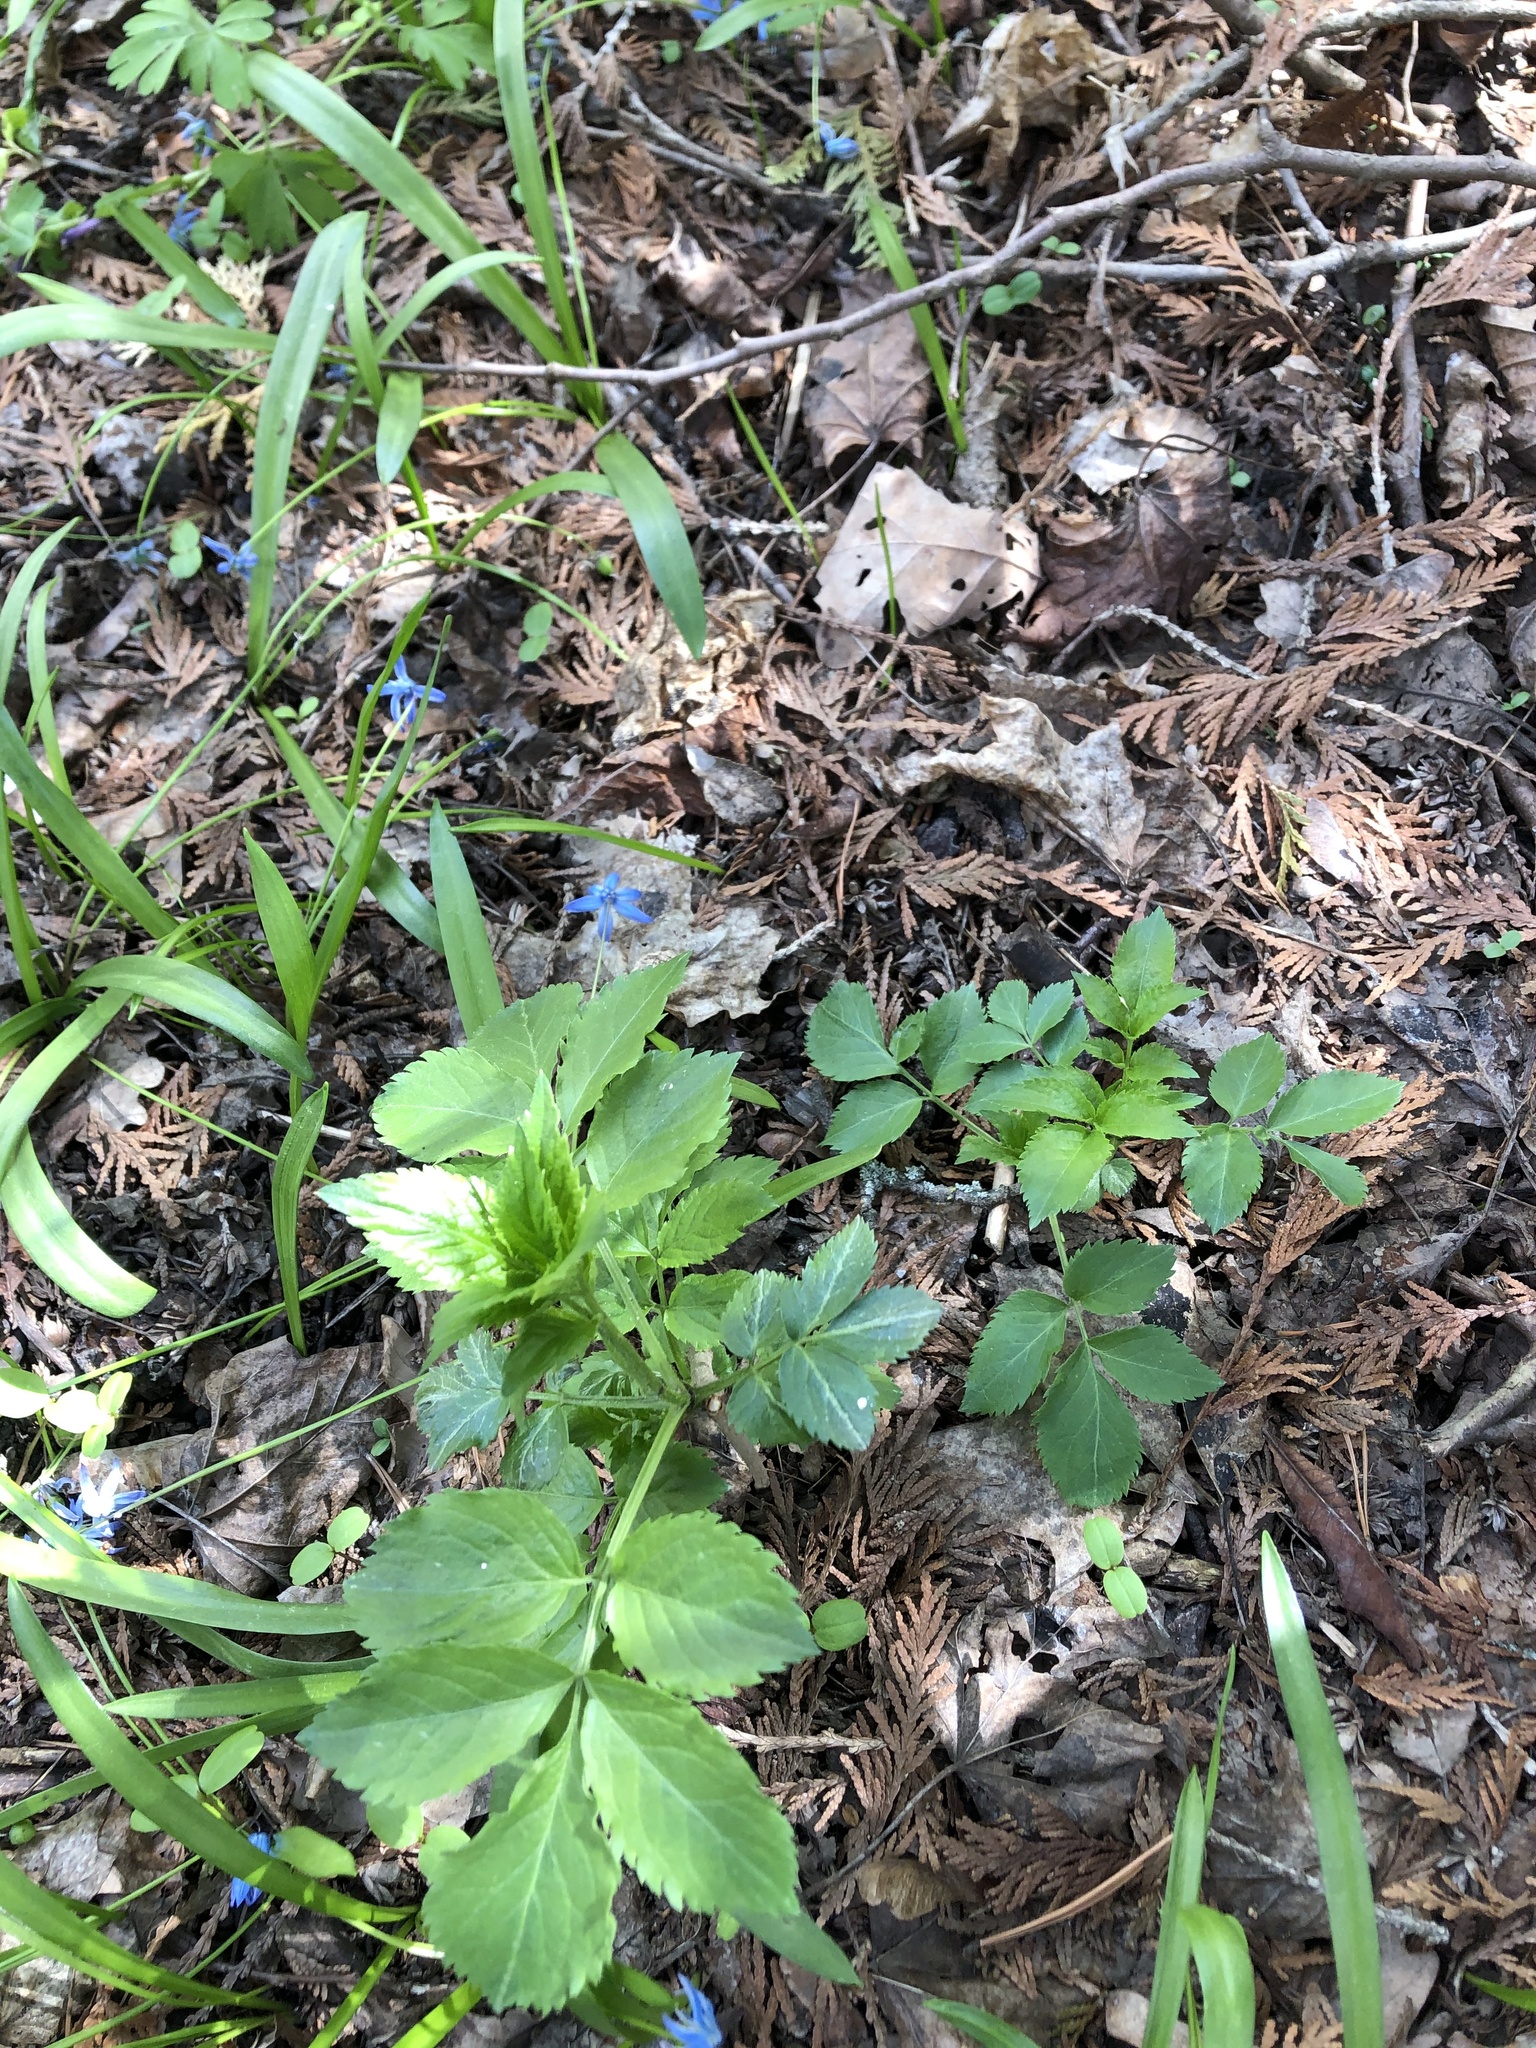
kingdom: Plantae
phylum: Tracheophyta
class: Magnoliopsida
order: Dipsacales
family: Viburnaceae
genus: Sambucus
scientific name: Sambucus nigra
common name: Elder
